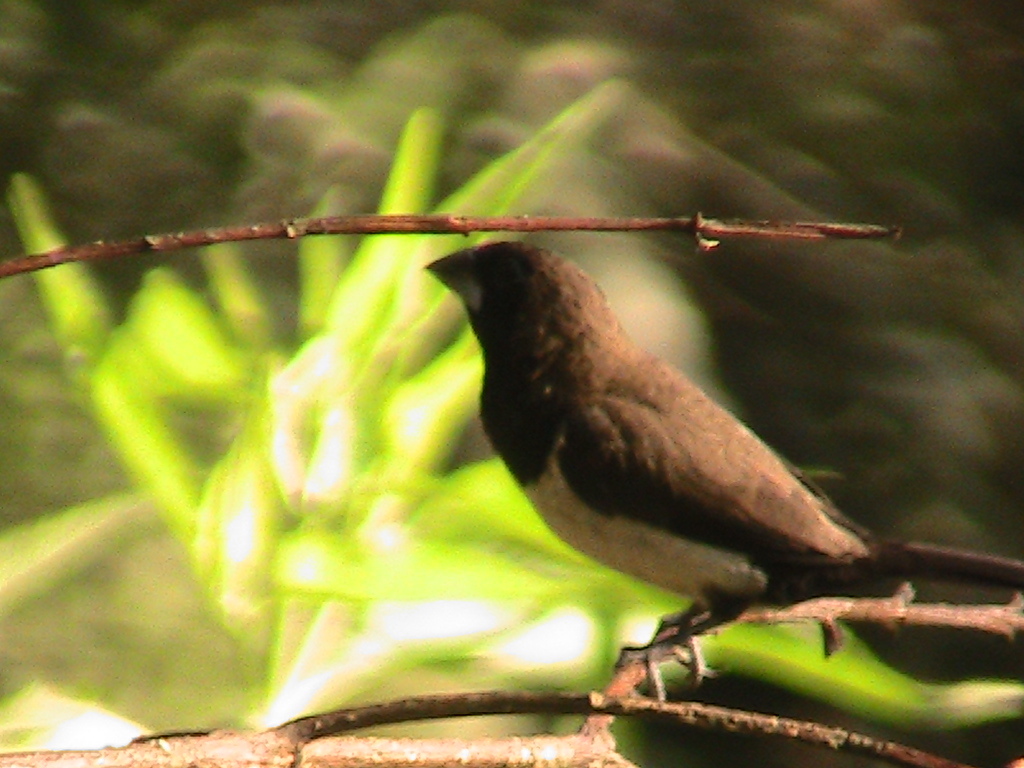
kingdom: Animalia
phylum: Chordata
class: Aves
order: Passeriformes
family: Estrildidae
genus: Lonchura
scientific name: Lonchura leucogastroides
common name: Javan munia
